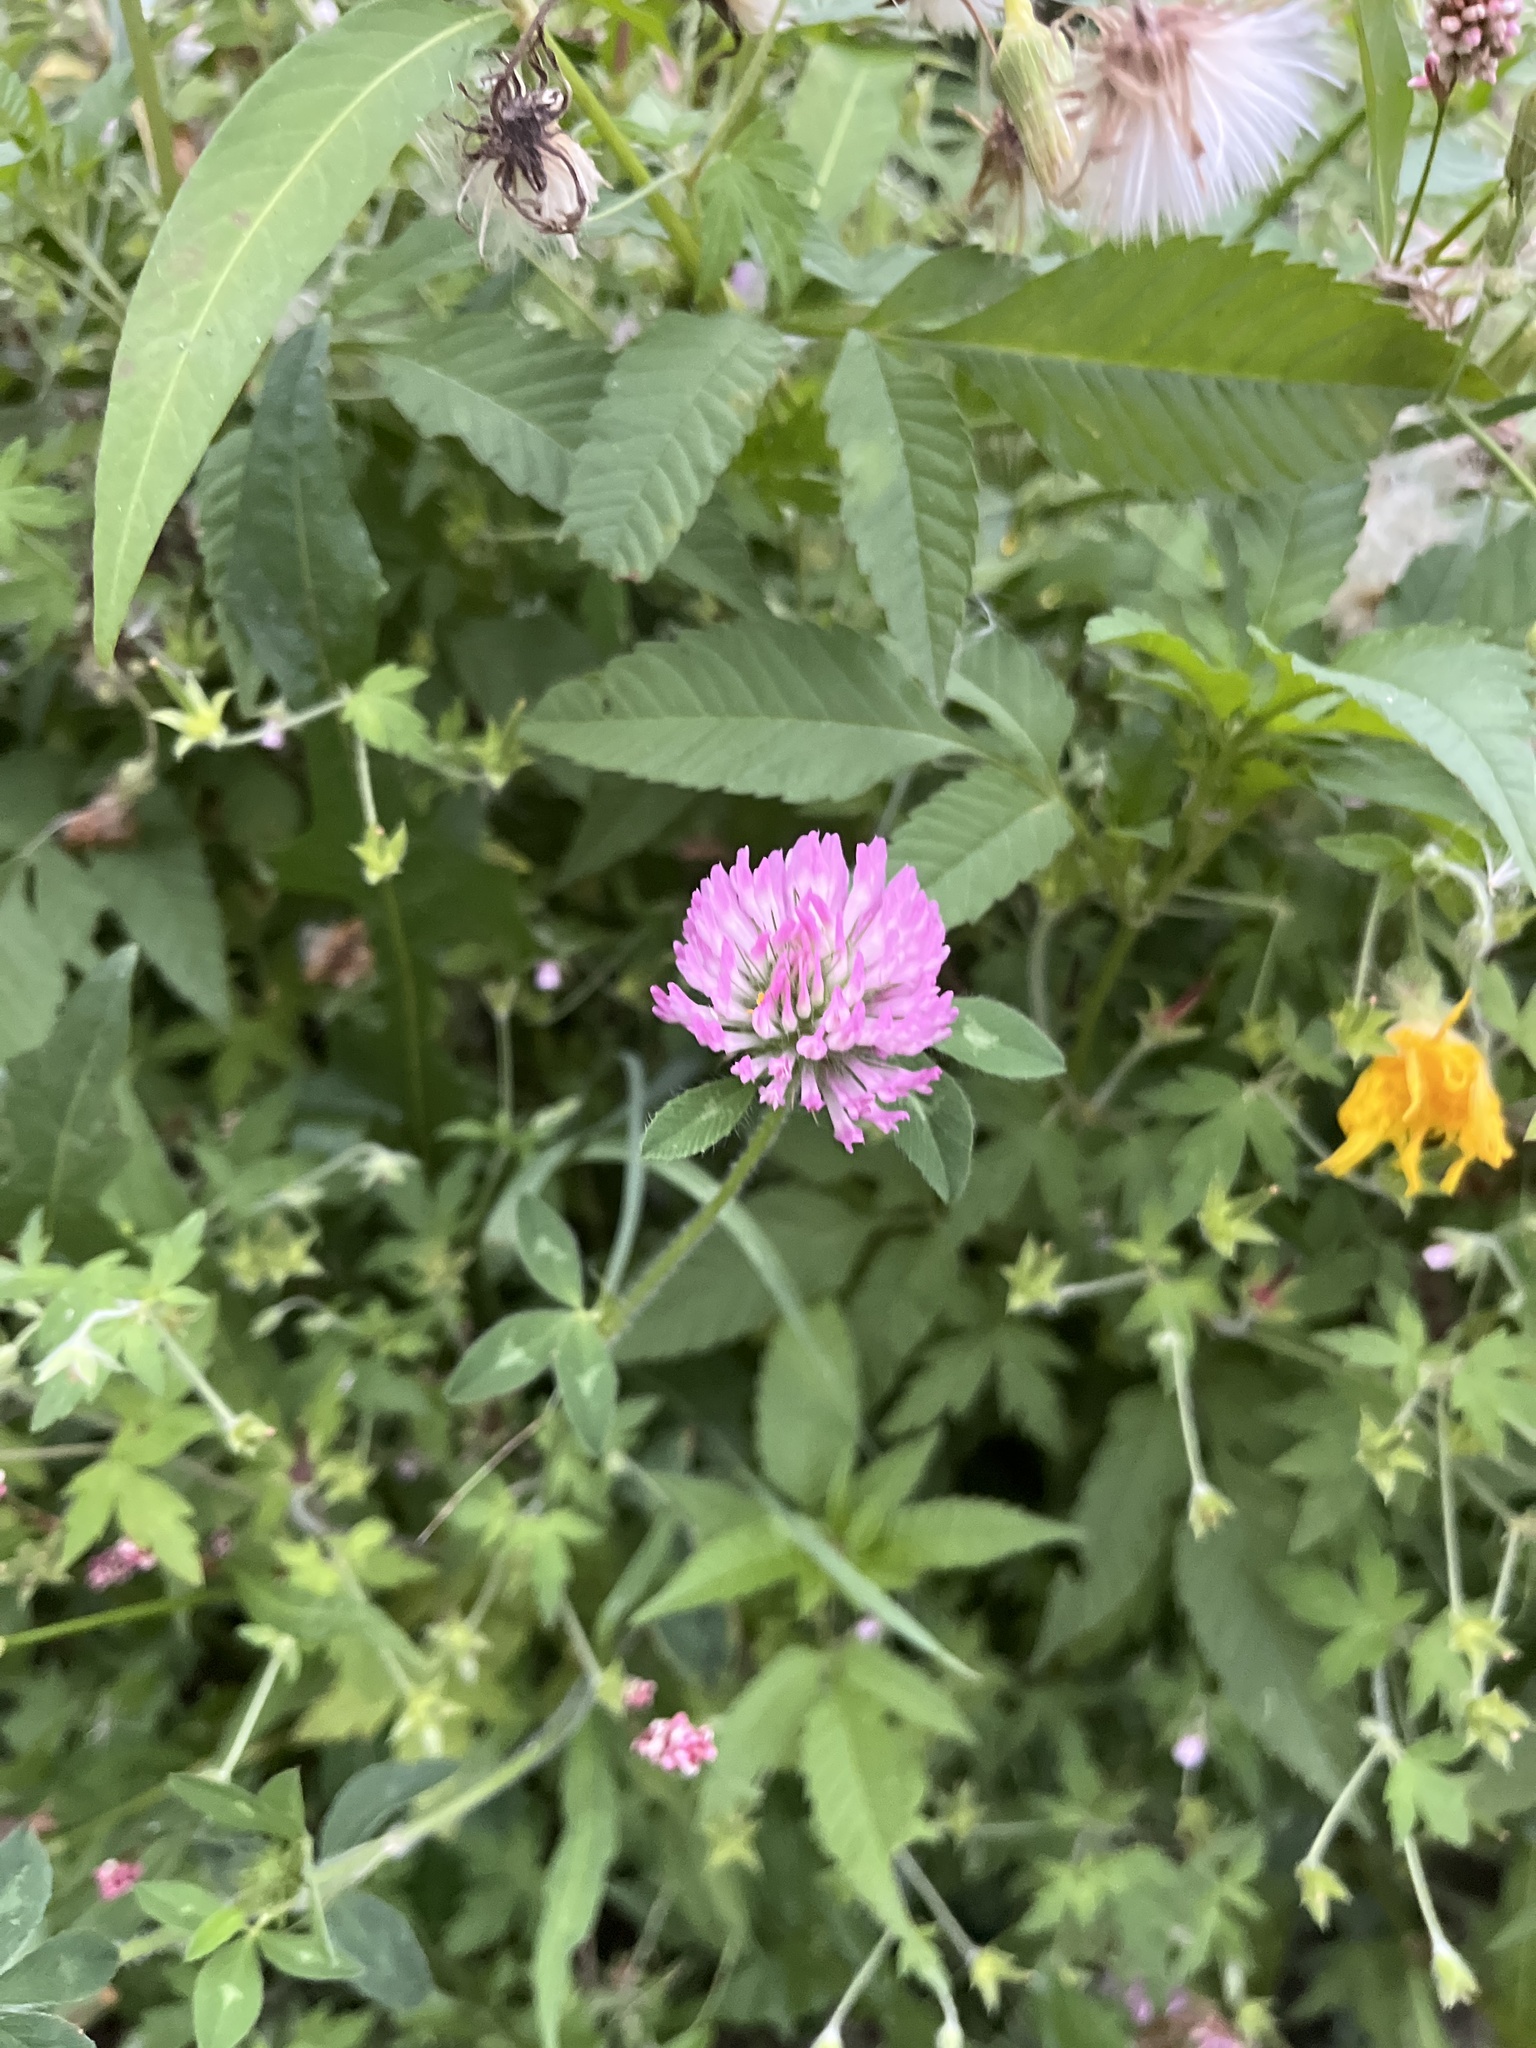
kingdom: Plantae
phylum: Tracheophyta
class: Magnoliopsida
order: Fabales
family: Fabaceae
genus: Trifolium
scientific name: Trifolium pratense
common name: Red clover
